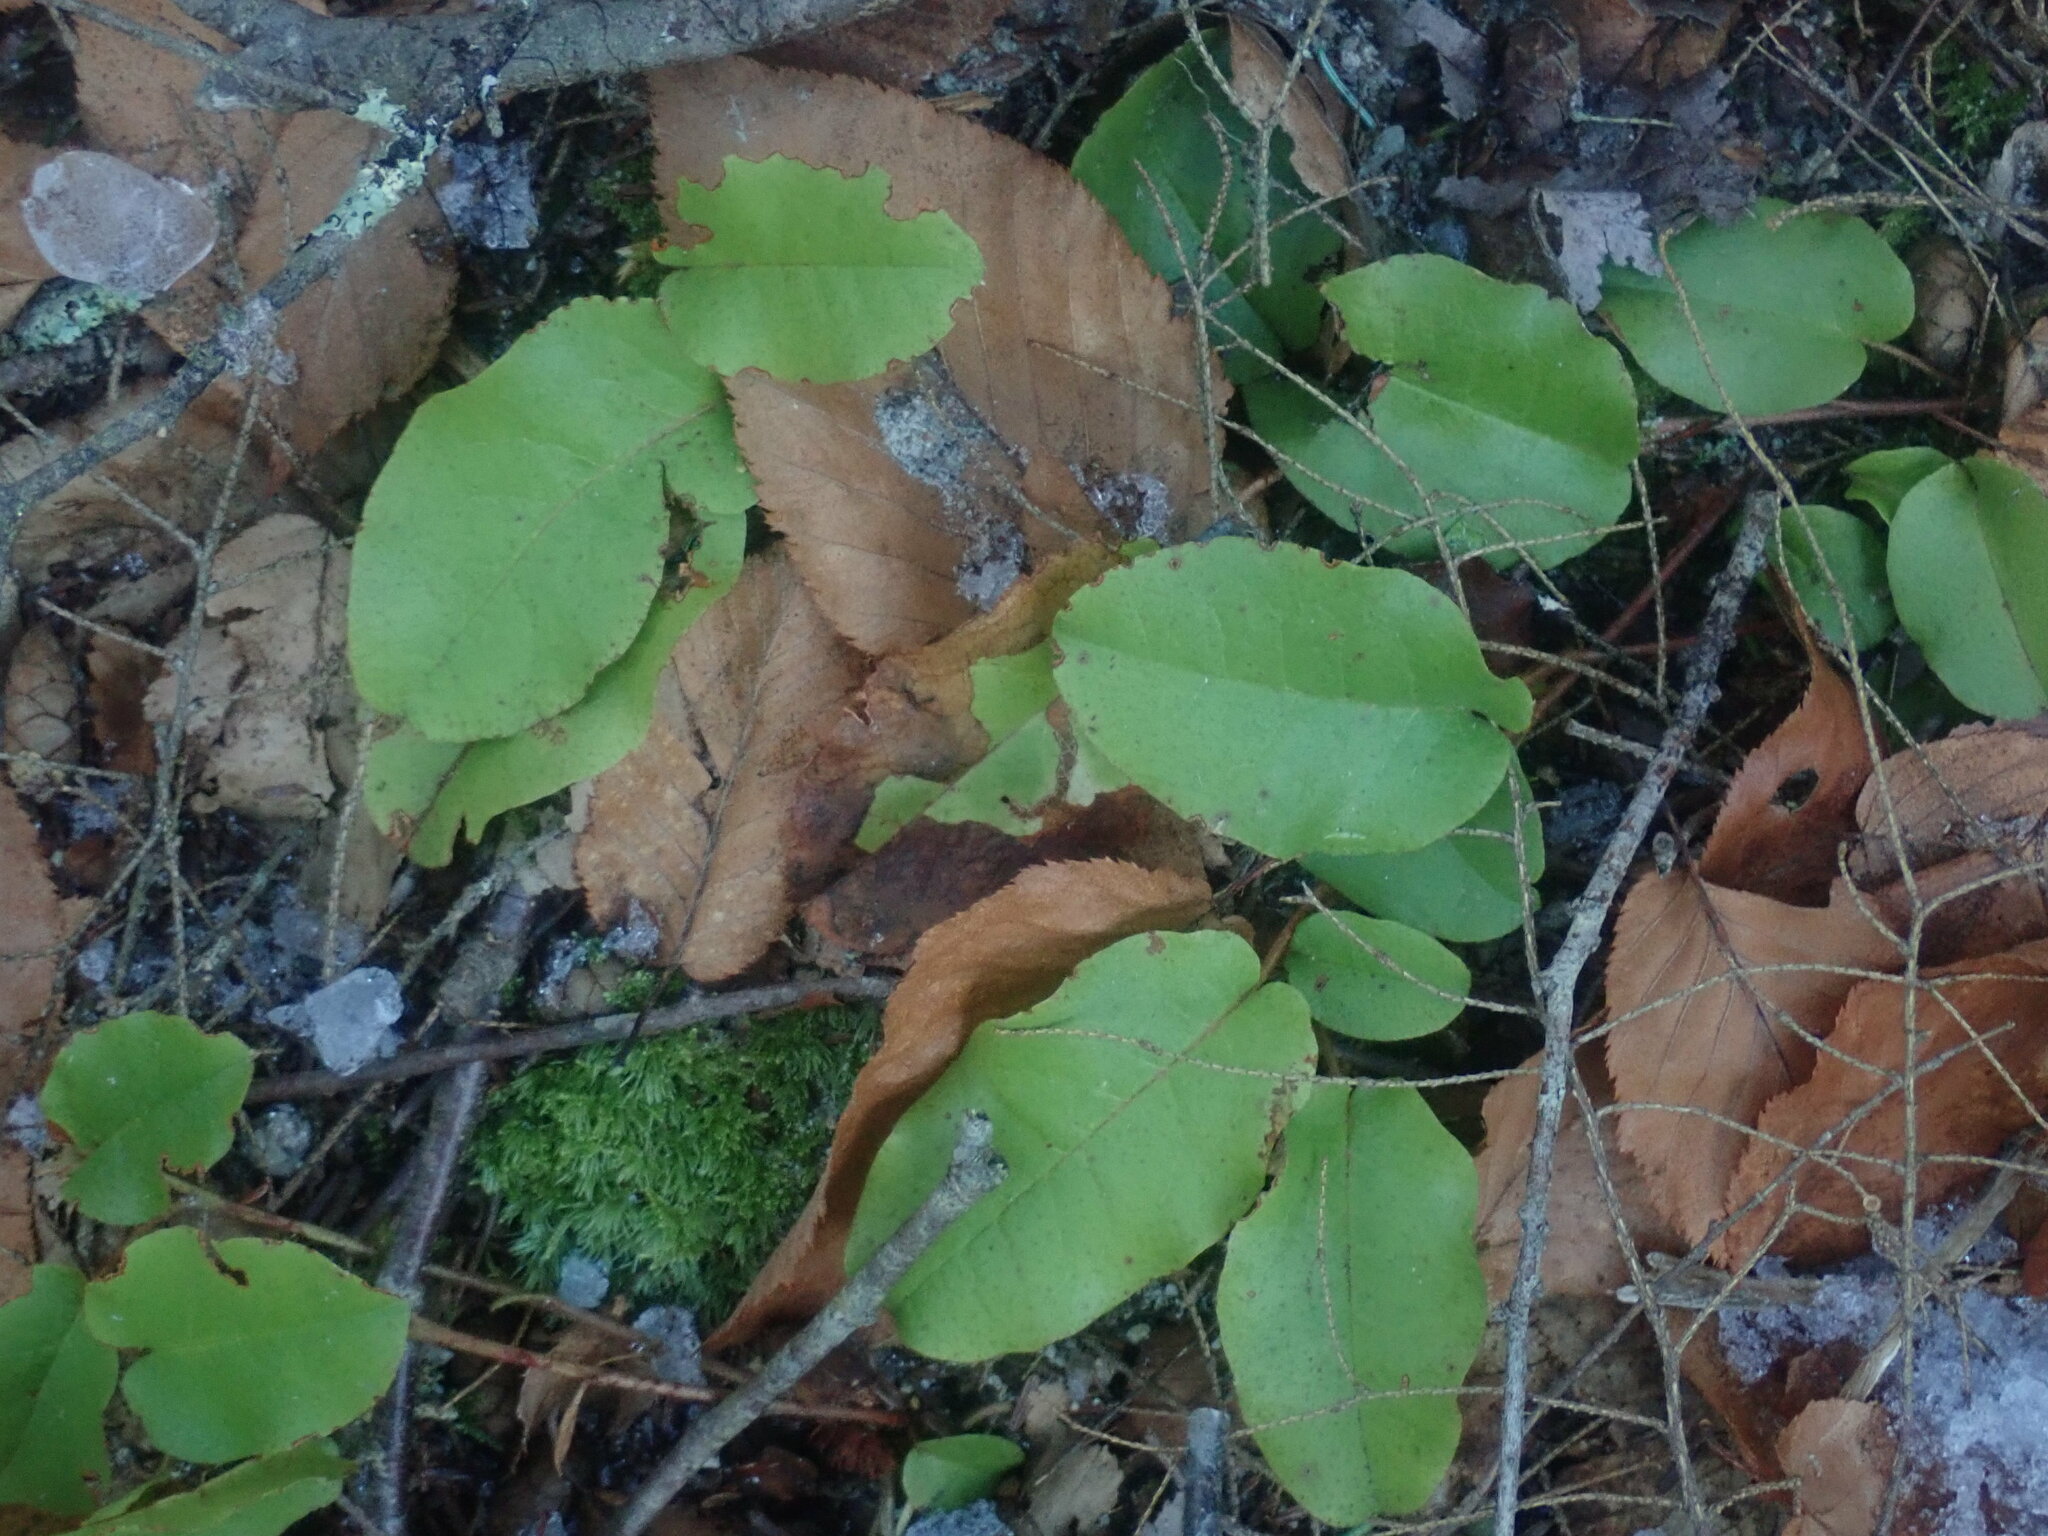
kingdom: Plantae
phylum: Tracheophyta
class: Magnoliopsida
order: Ericales
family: Ericaceae
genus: Epigaea
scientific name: Epigaea repens
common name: Gravelroot
